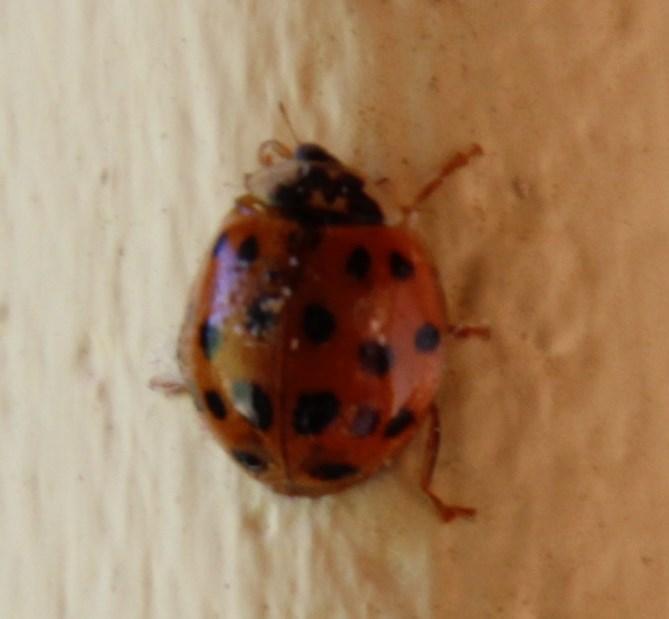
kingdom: Animalia
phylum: Arthropoda
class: Insecta
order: Coleoptera
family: Coccinellidae
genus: Harmonia
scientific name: Harmonia axyridis
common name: Harlequin ladybird
